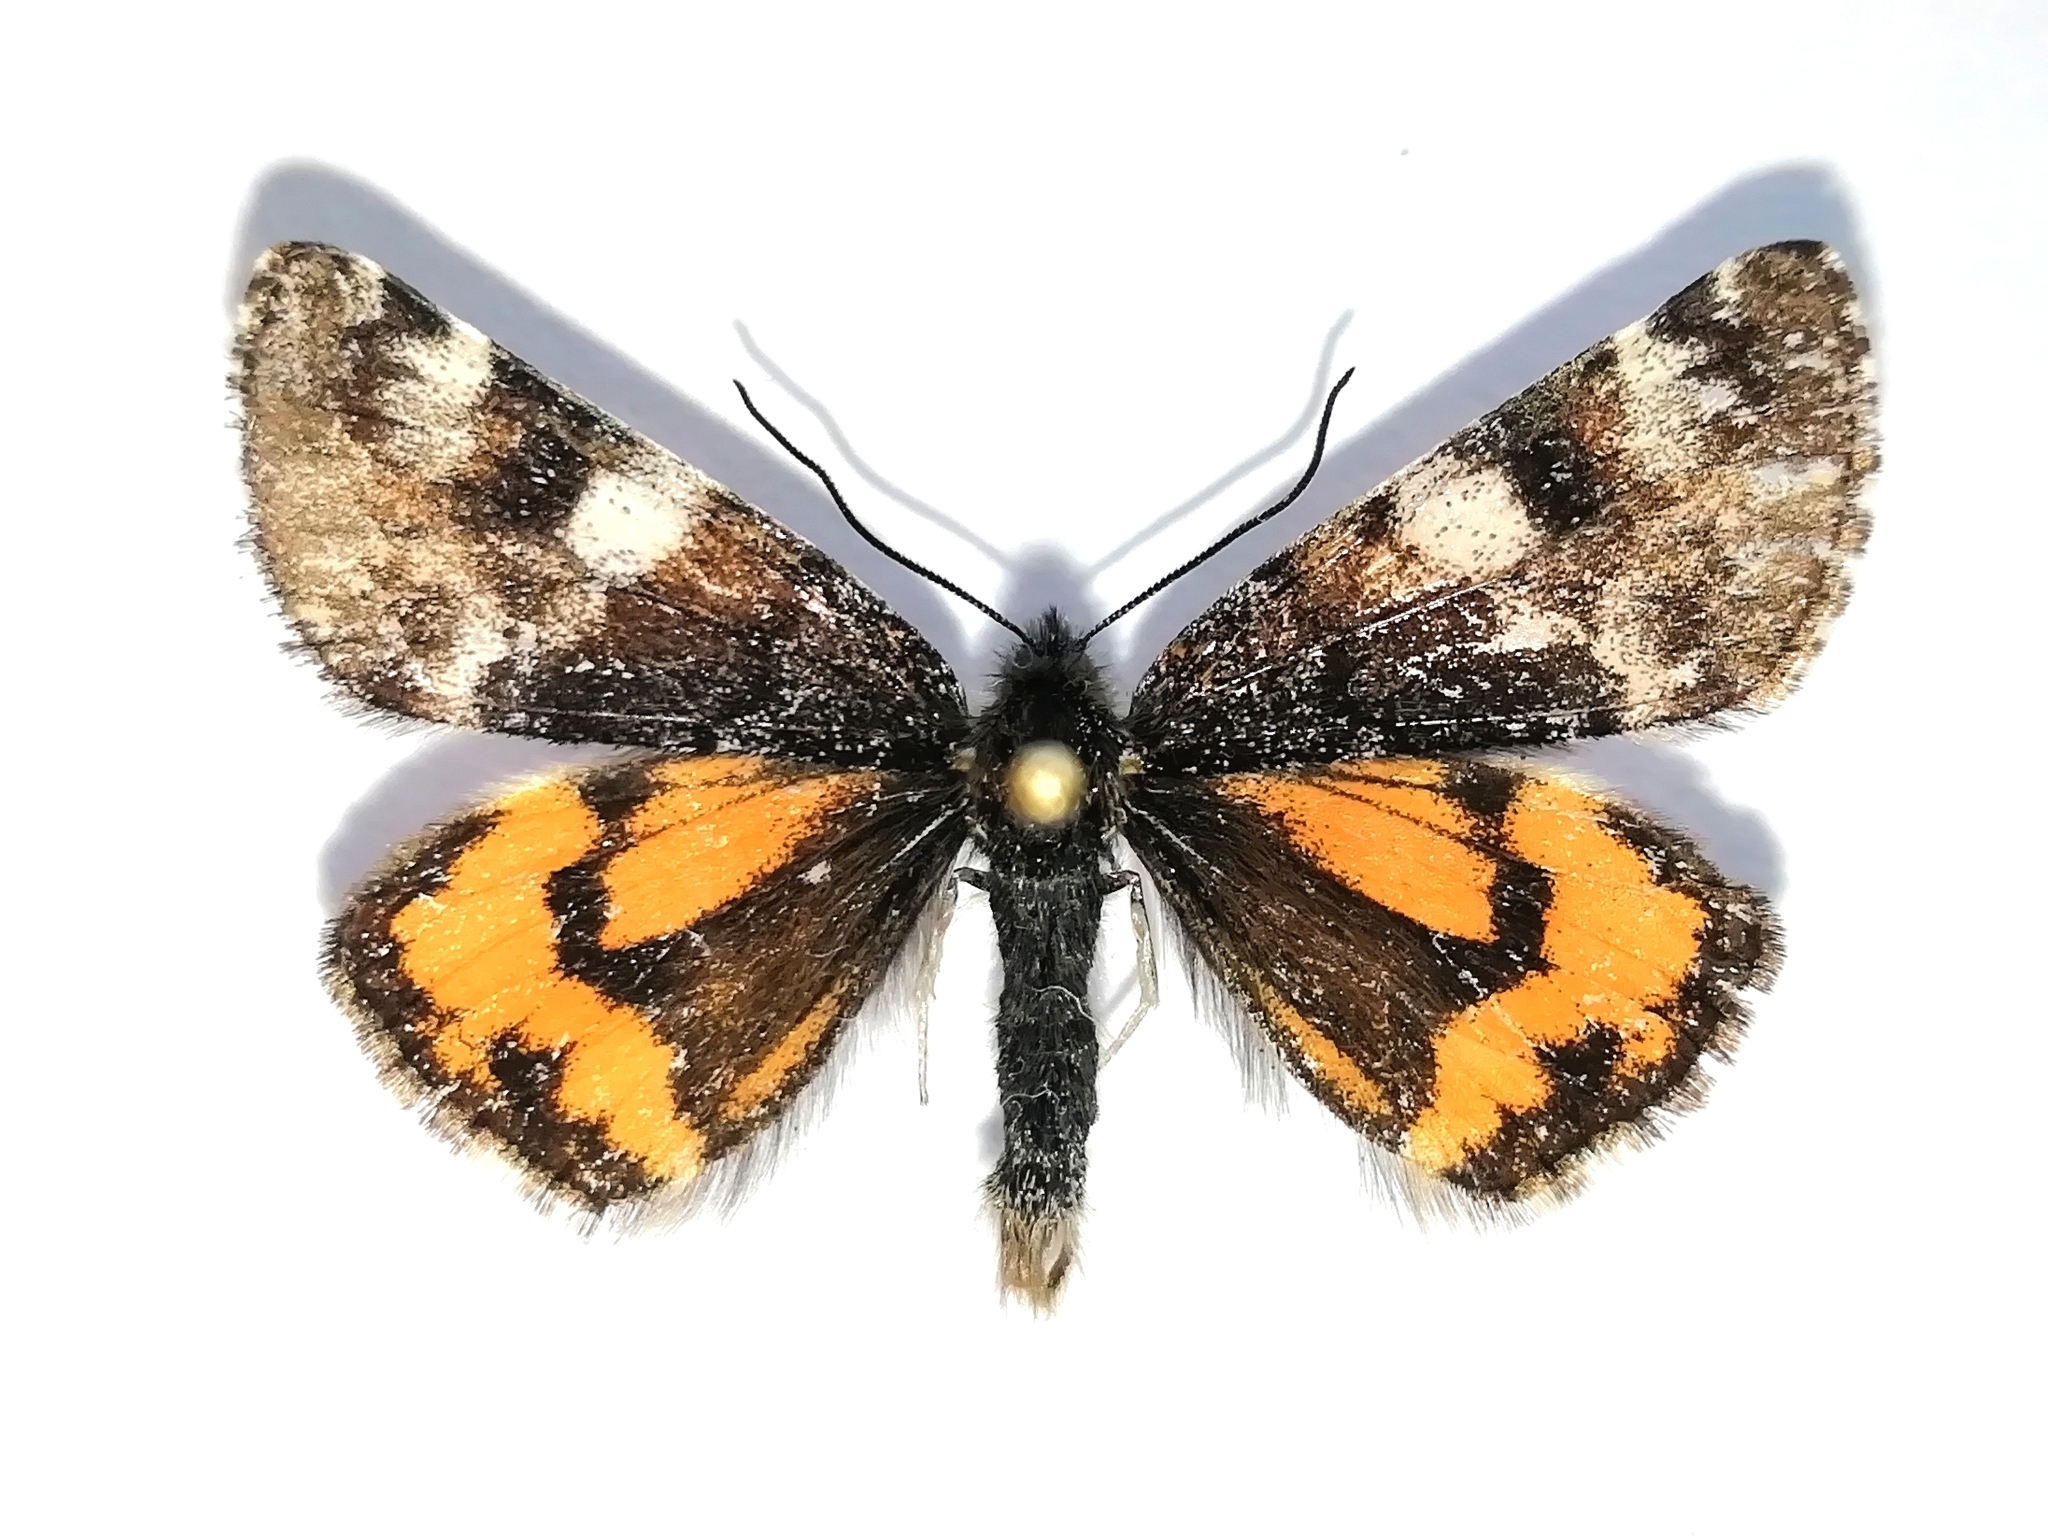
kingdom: Animalia
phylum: Arthropoda
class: Insecta
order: Lepidoptera
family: Geometridae
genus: Archiearis
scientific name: Archiearis parthenias
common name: Orange underwing
